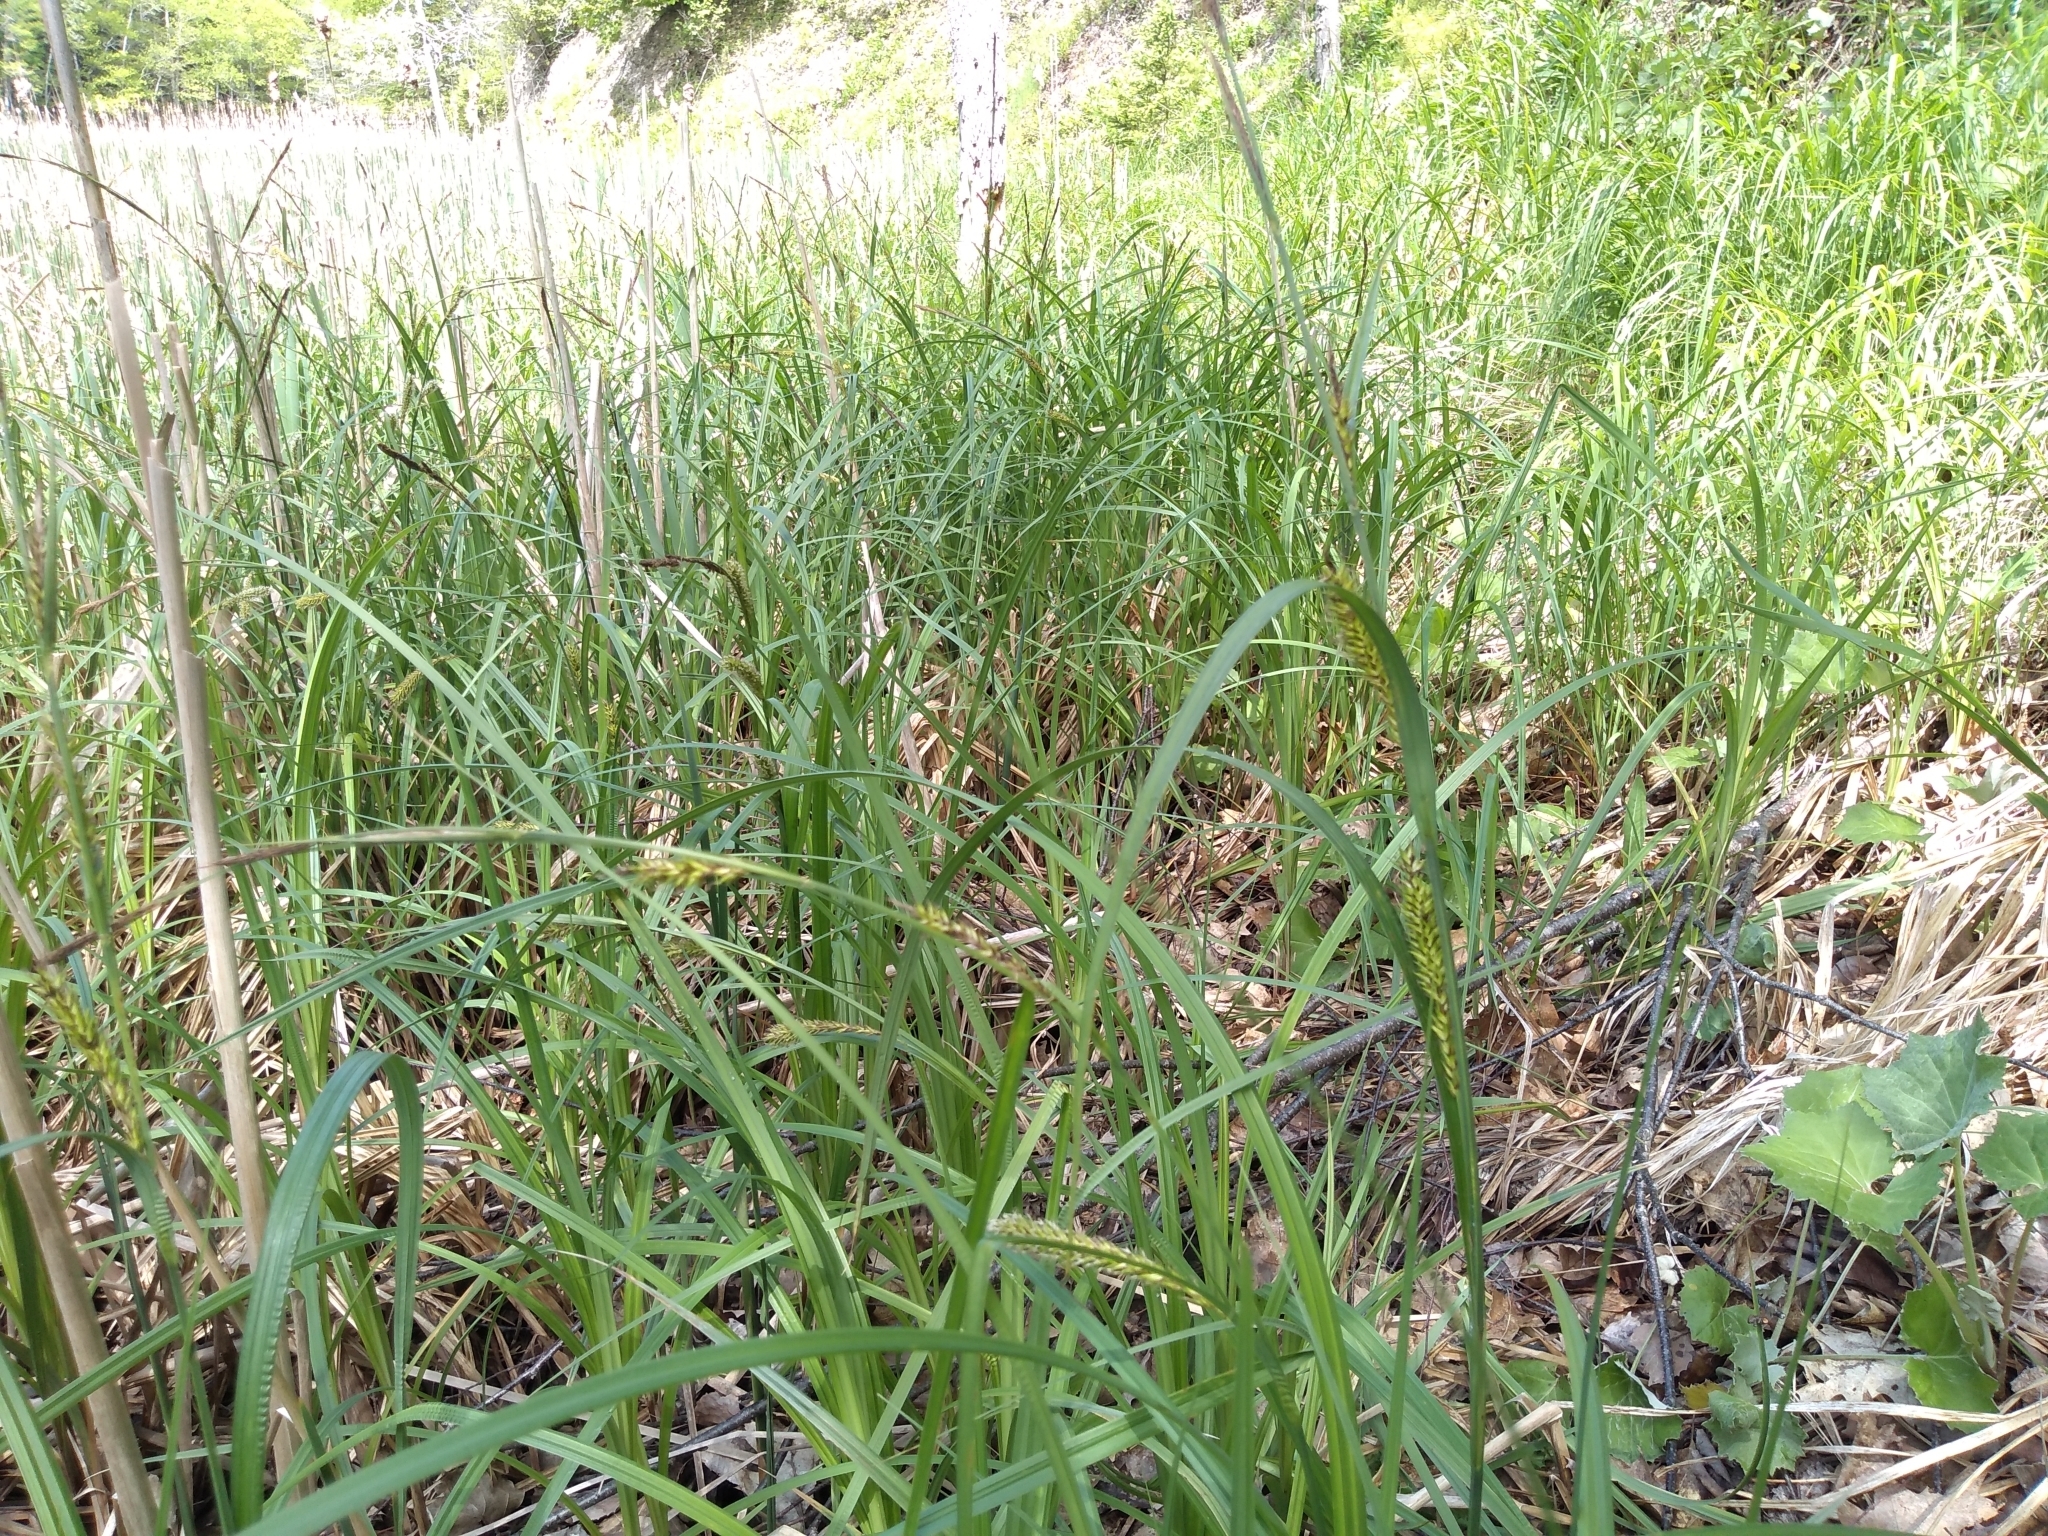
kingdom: Plantae
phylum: Tracheophyta
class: Liliopsida
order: Poales
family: Cyperaceae
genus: Carex
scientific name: Carex lacustris
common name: Common lake sedge
